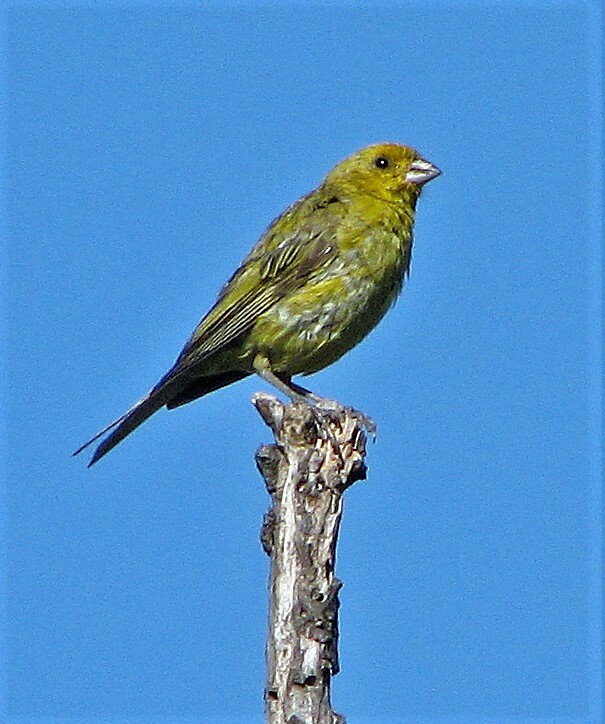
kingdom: Animalia
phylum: Chordata
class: Aves
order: Passeriformes
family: Thraupidae
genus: Sicalis
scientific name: Sicalis flaveola
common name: Saffron finch
